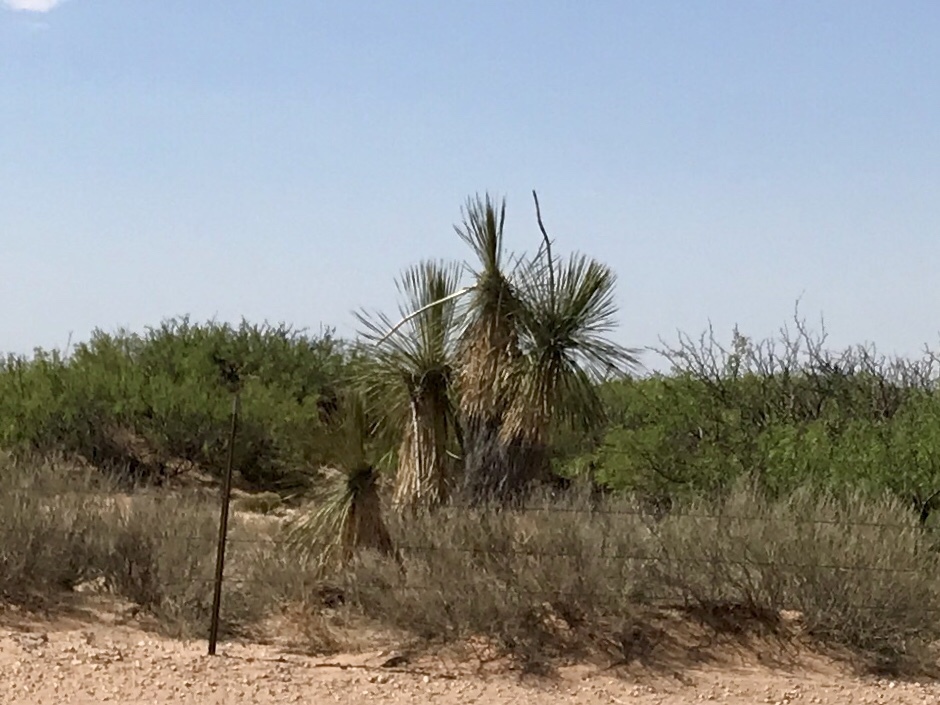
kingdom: Plantae
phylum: Tracheophyta
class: Liliopsida
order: Asparagales
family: Asparagaceae
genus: Yucca
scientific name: Yucca elata
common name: Palmella
